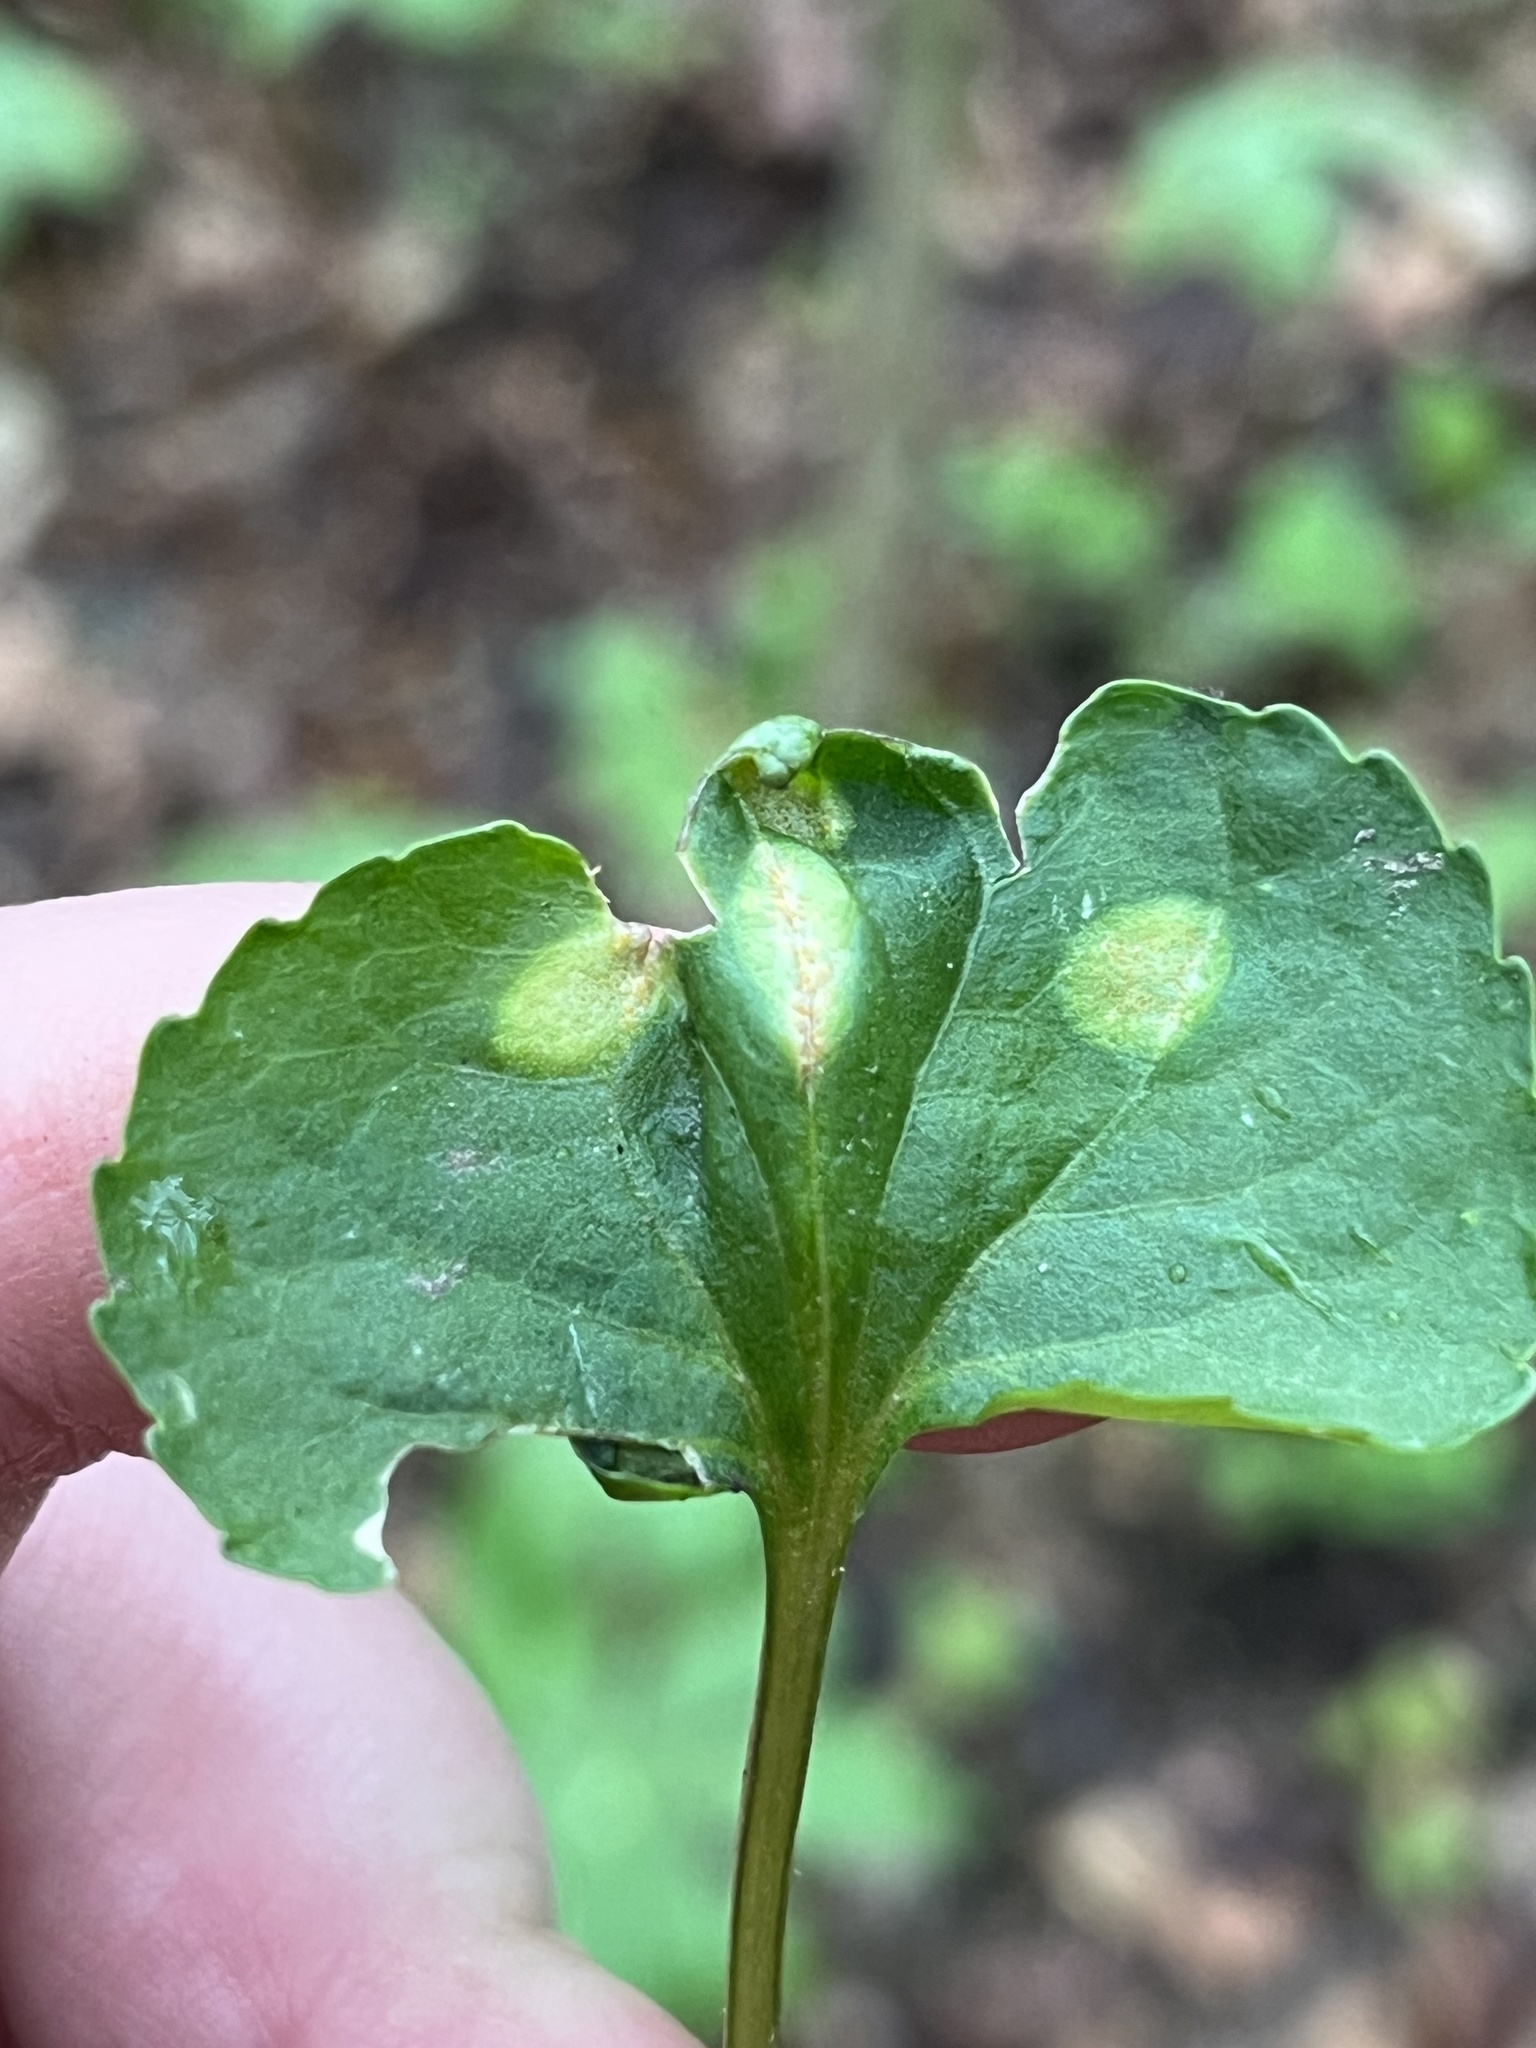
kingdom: Fungi
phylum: Basidiomycota
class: Pucciniomycetes
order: Pucciniales
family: Pucciniaceae
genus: Puccinia
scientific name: Puccinia violae
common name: Violet rust
